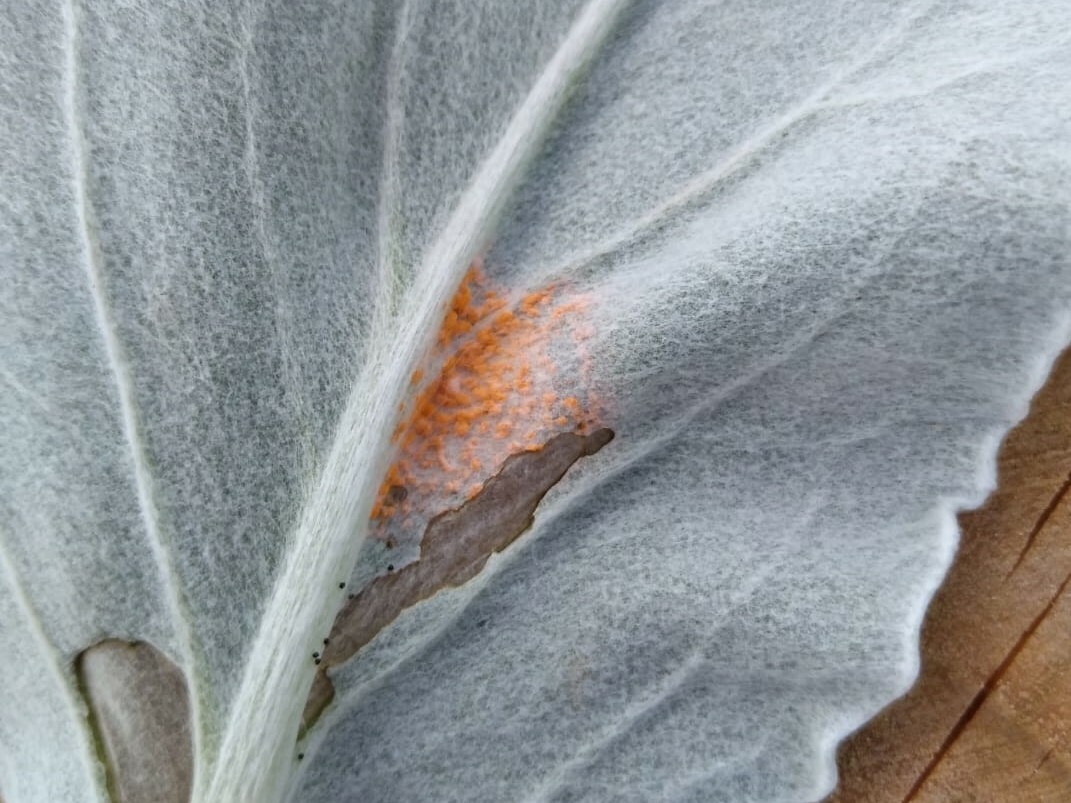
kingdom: Fungi
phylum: Basidiomycota
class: Pucciniomycetes
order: Pucciniales
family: Coleosporiaceae
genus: Coleosporium
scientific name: Coleosporium tussilaginis
